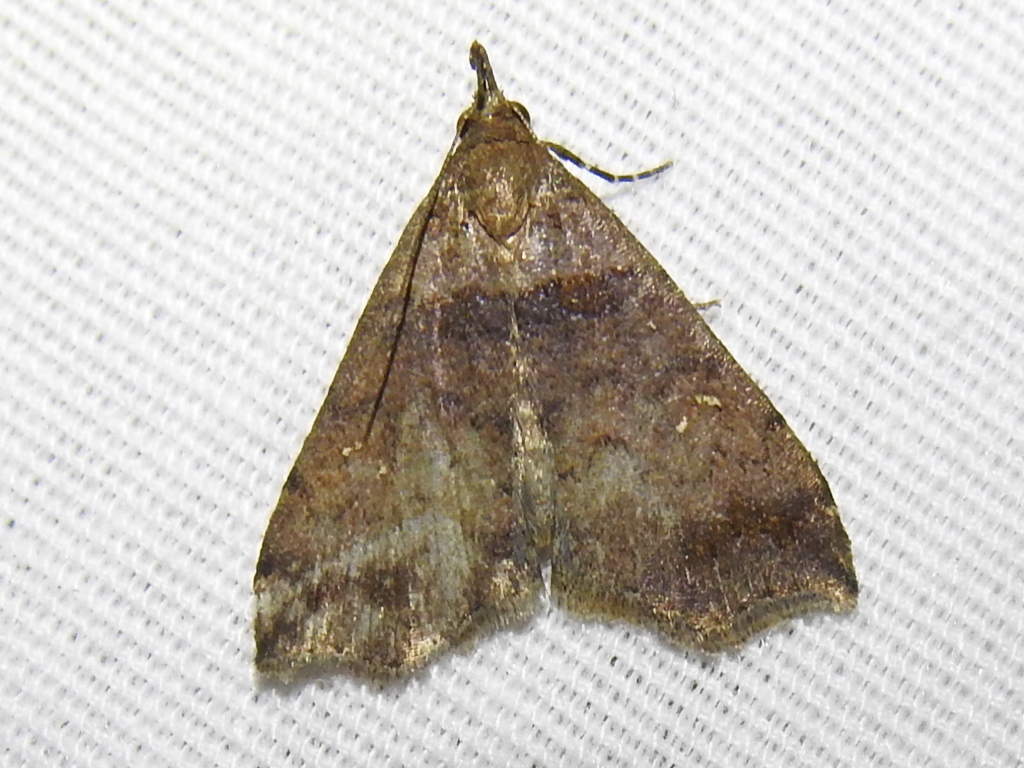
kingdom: Animalia
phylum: Arthropoda
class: Insecta
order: Lepidoptera
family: Erebidae
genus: Lascoria
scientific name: Lascoria ambigualis
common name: Ambiguous moth
